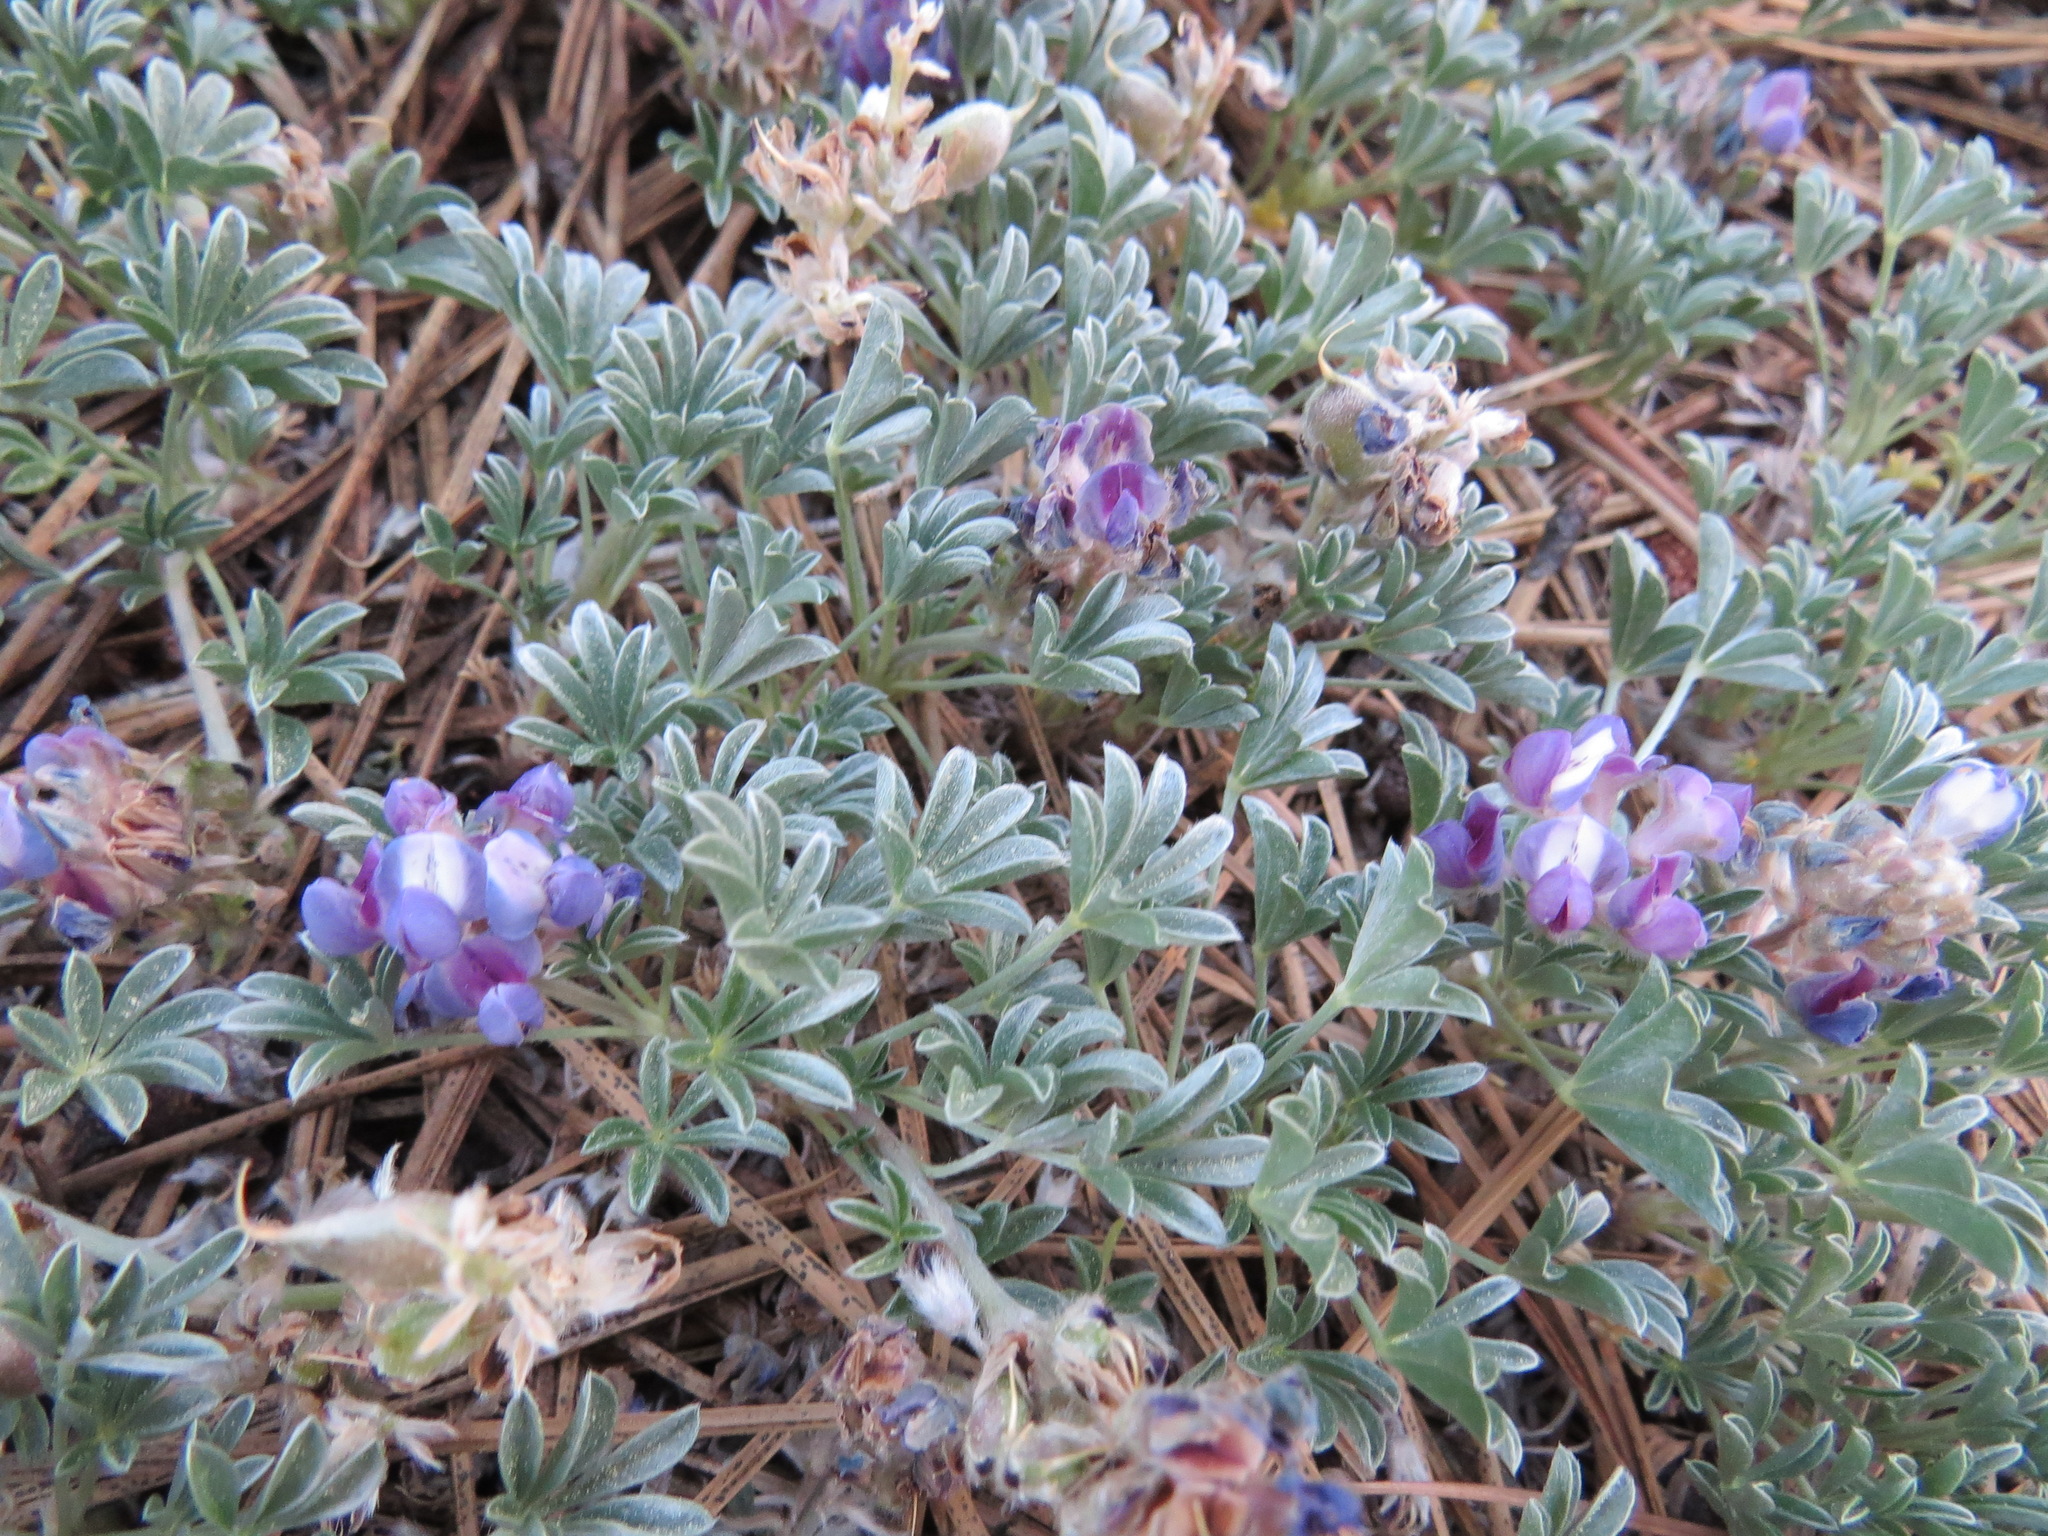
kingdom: Plantae
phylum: Tracheophyta
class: Magnoliopsida
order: Fabales
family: Fabaceae
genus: Lupinus
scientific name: Lupinus breweri
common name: Brewer's lupine
